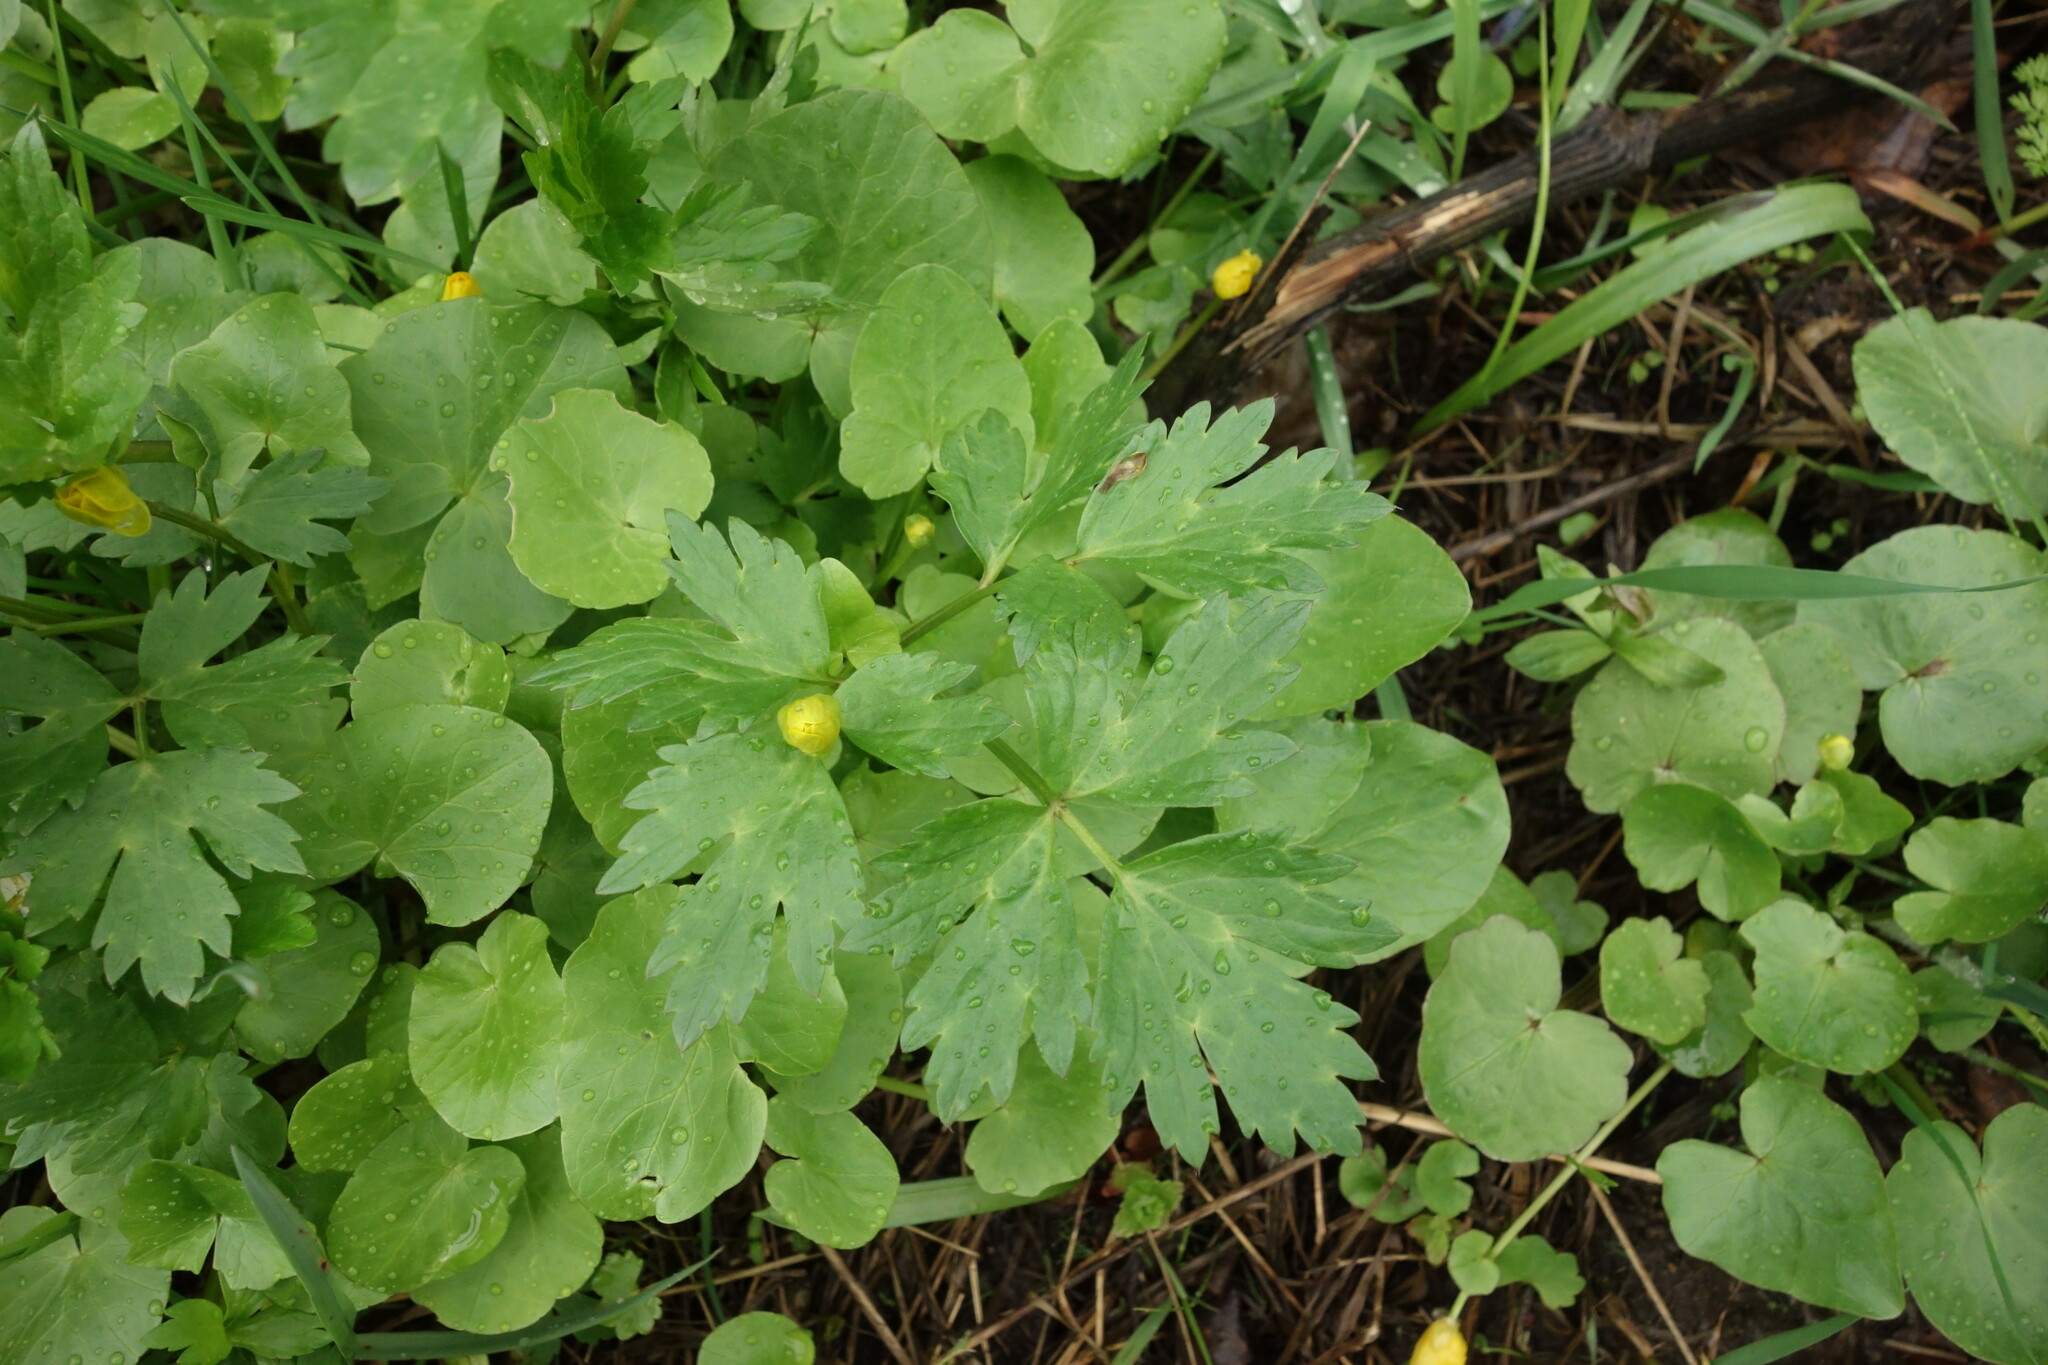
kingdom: Plantae
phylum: Tracheophyta
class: Magnoliopsida
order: Ranunculales
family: Ranunculaceae
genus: Ranunculus
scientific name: Ranunculus repens
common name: Creeping buttercup
